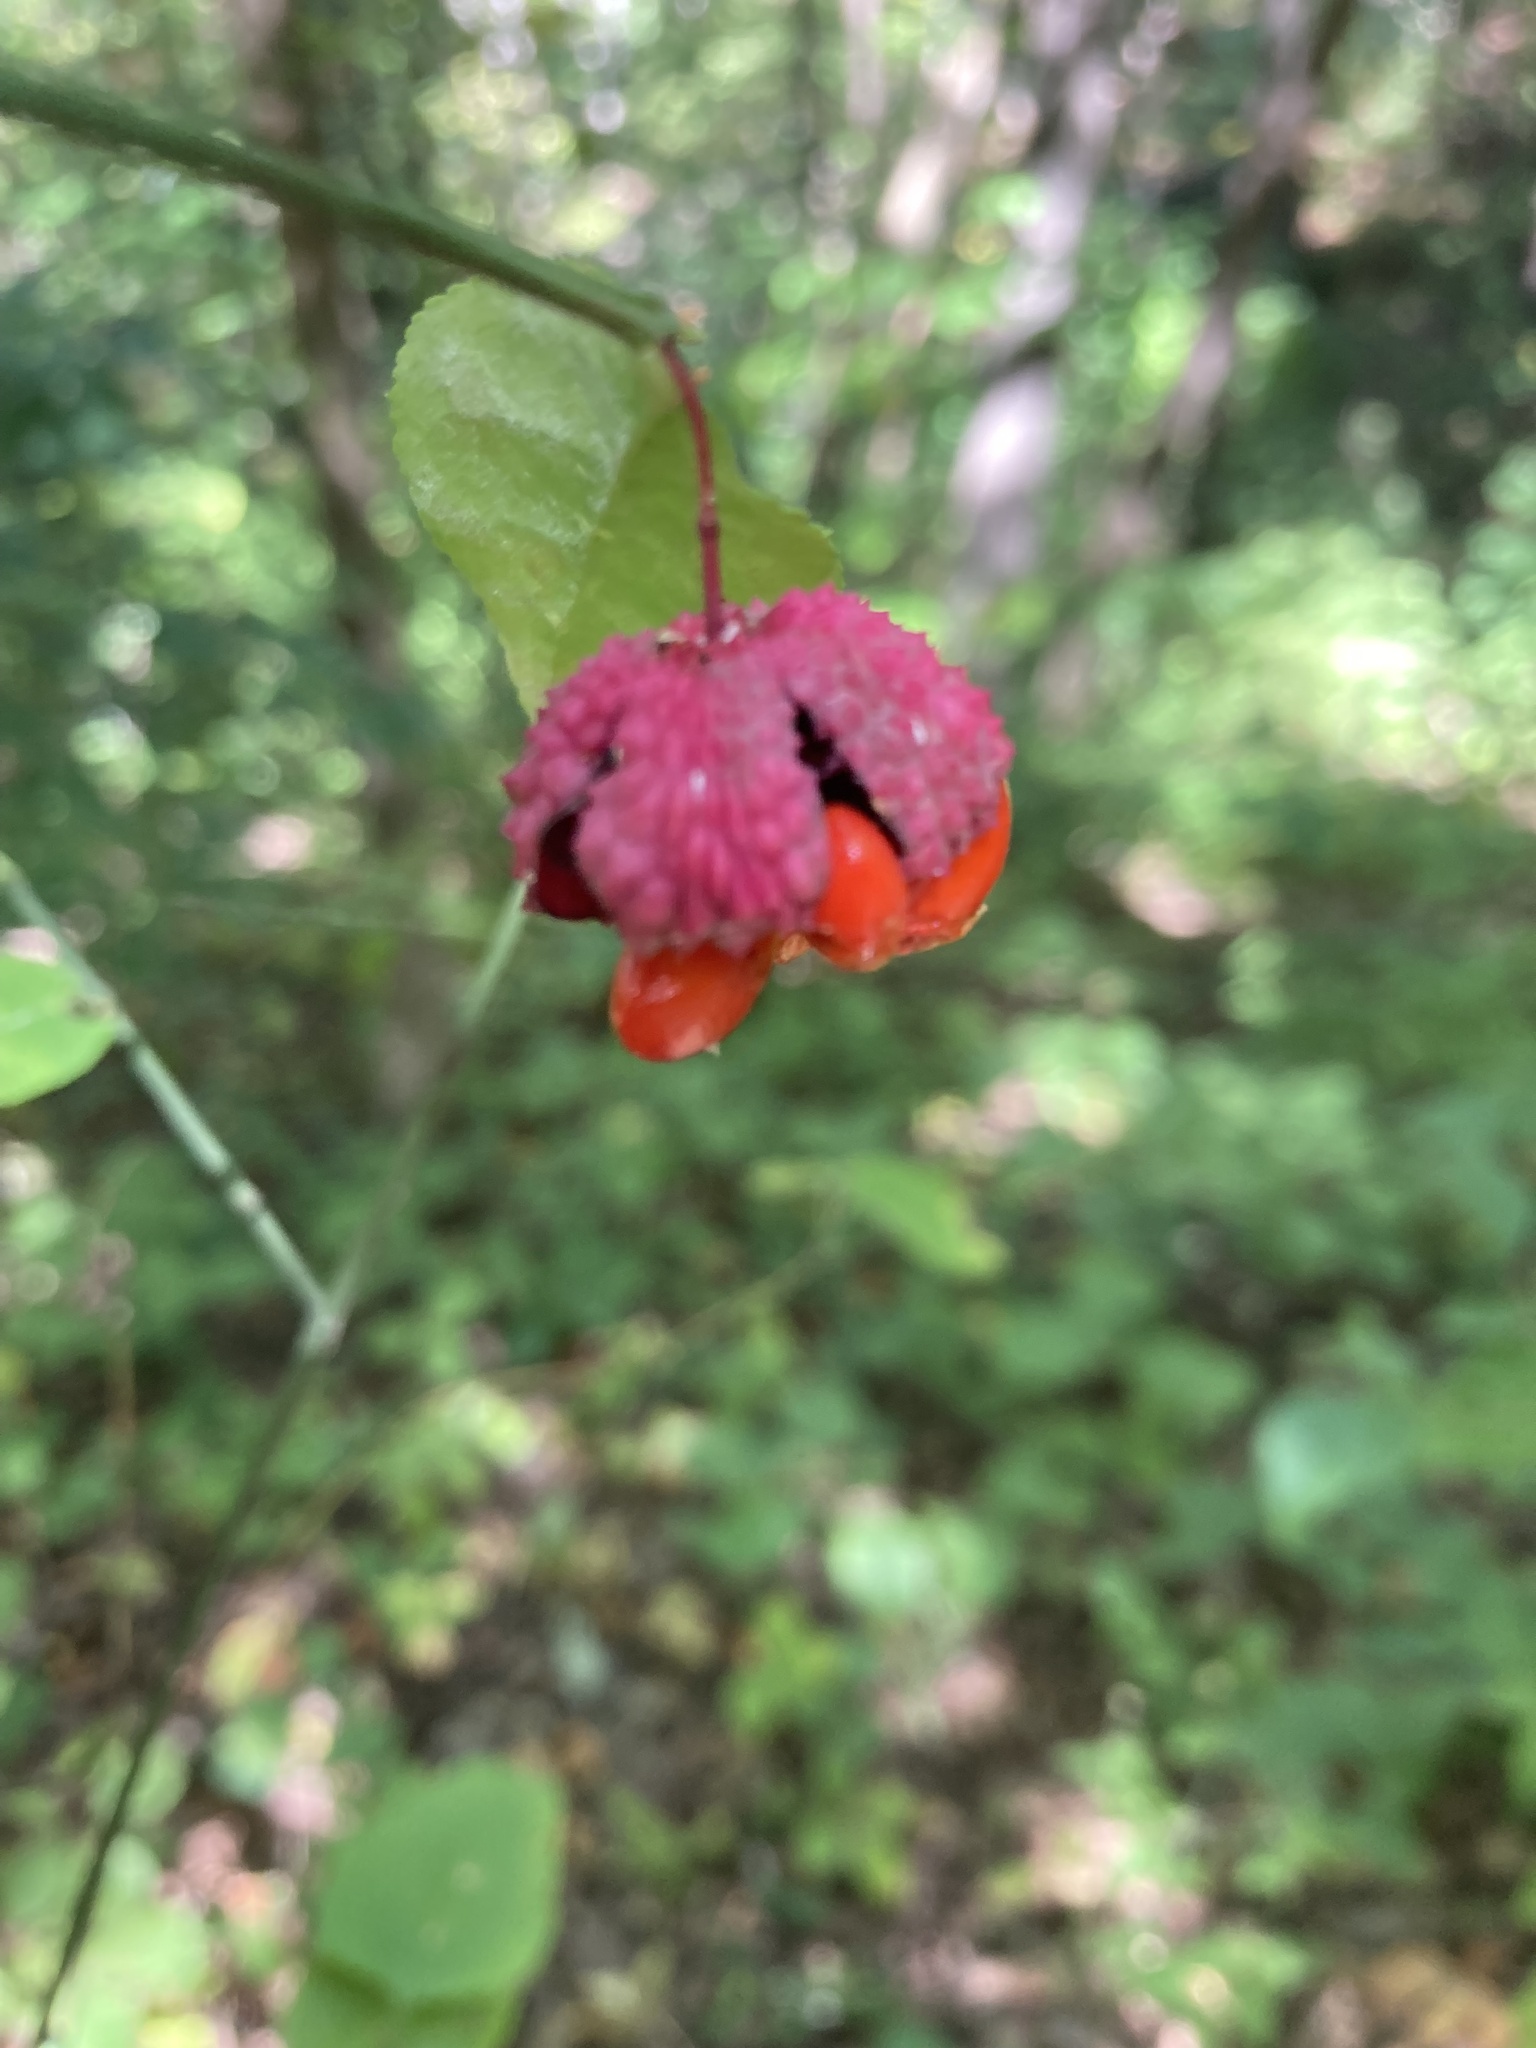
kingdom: Plantae
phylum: Tracheophyta
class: Magnoliopsida
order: Celastrales
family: Celastraceae
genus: Euonymus
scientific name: Euonymus americanus
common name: Bursting-heart
